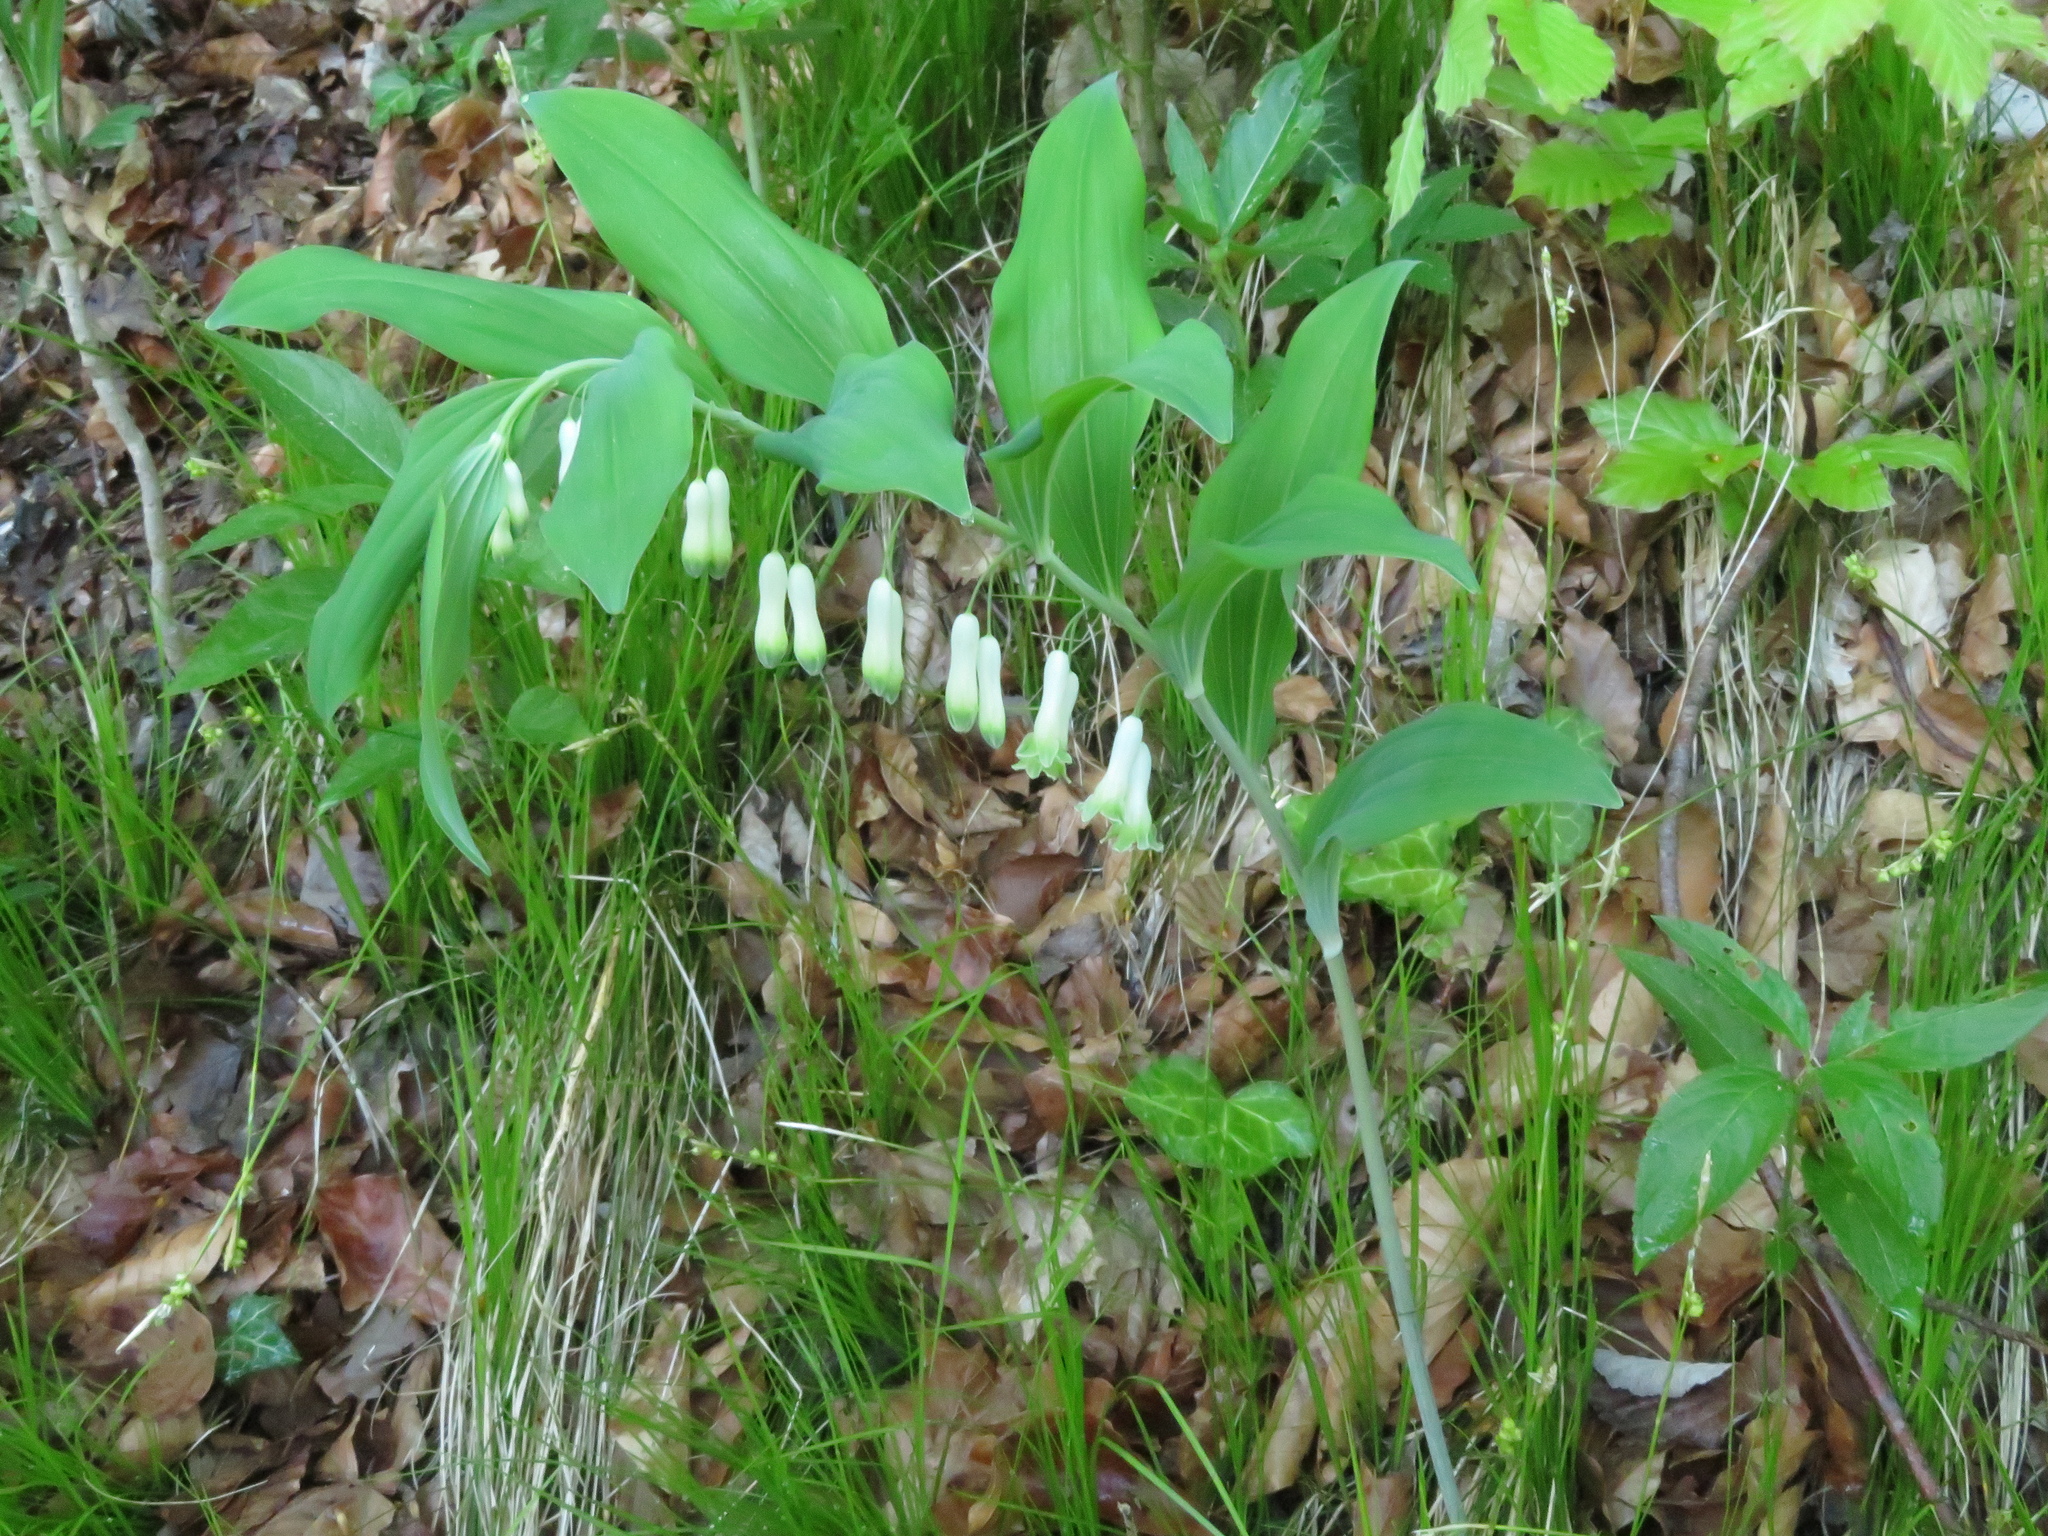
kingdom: Plantae
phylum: Tracheophyta
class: Liliopsida
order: Asparagales
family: Asparagaceae
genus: Polygonatum
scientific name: Polygonatum multiflorum
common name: Solomon's-seal
